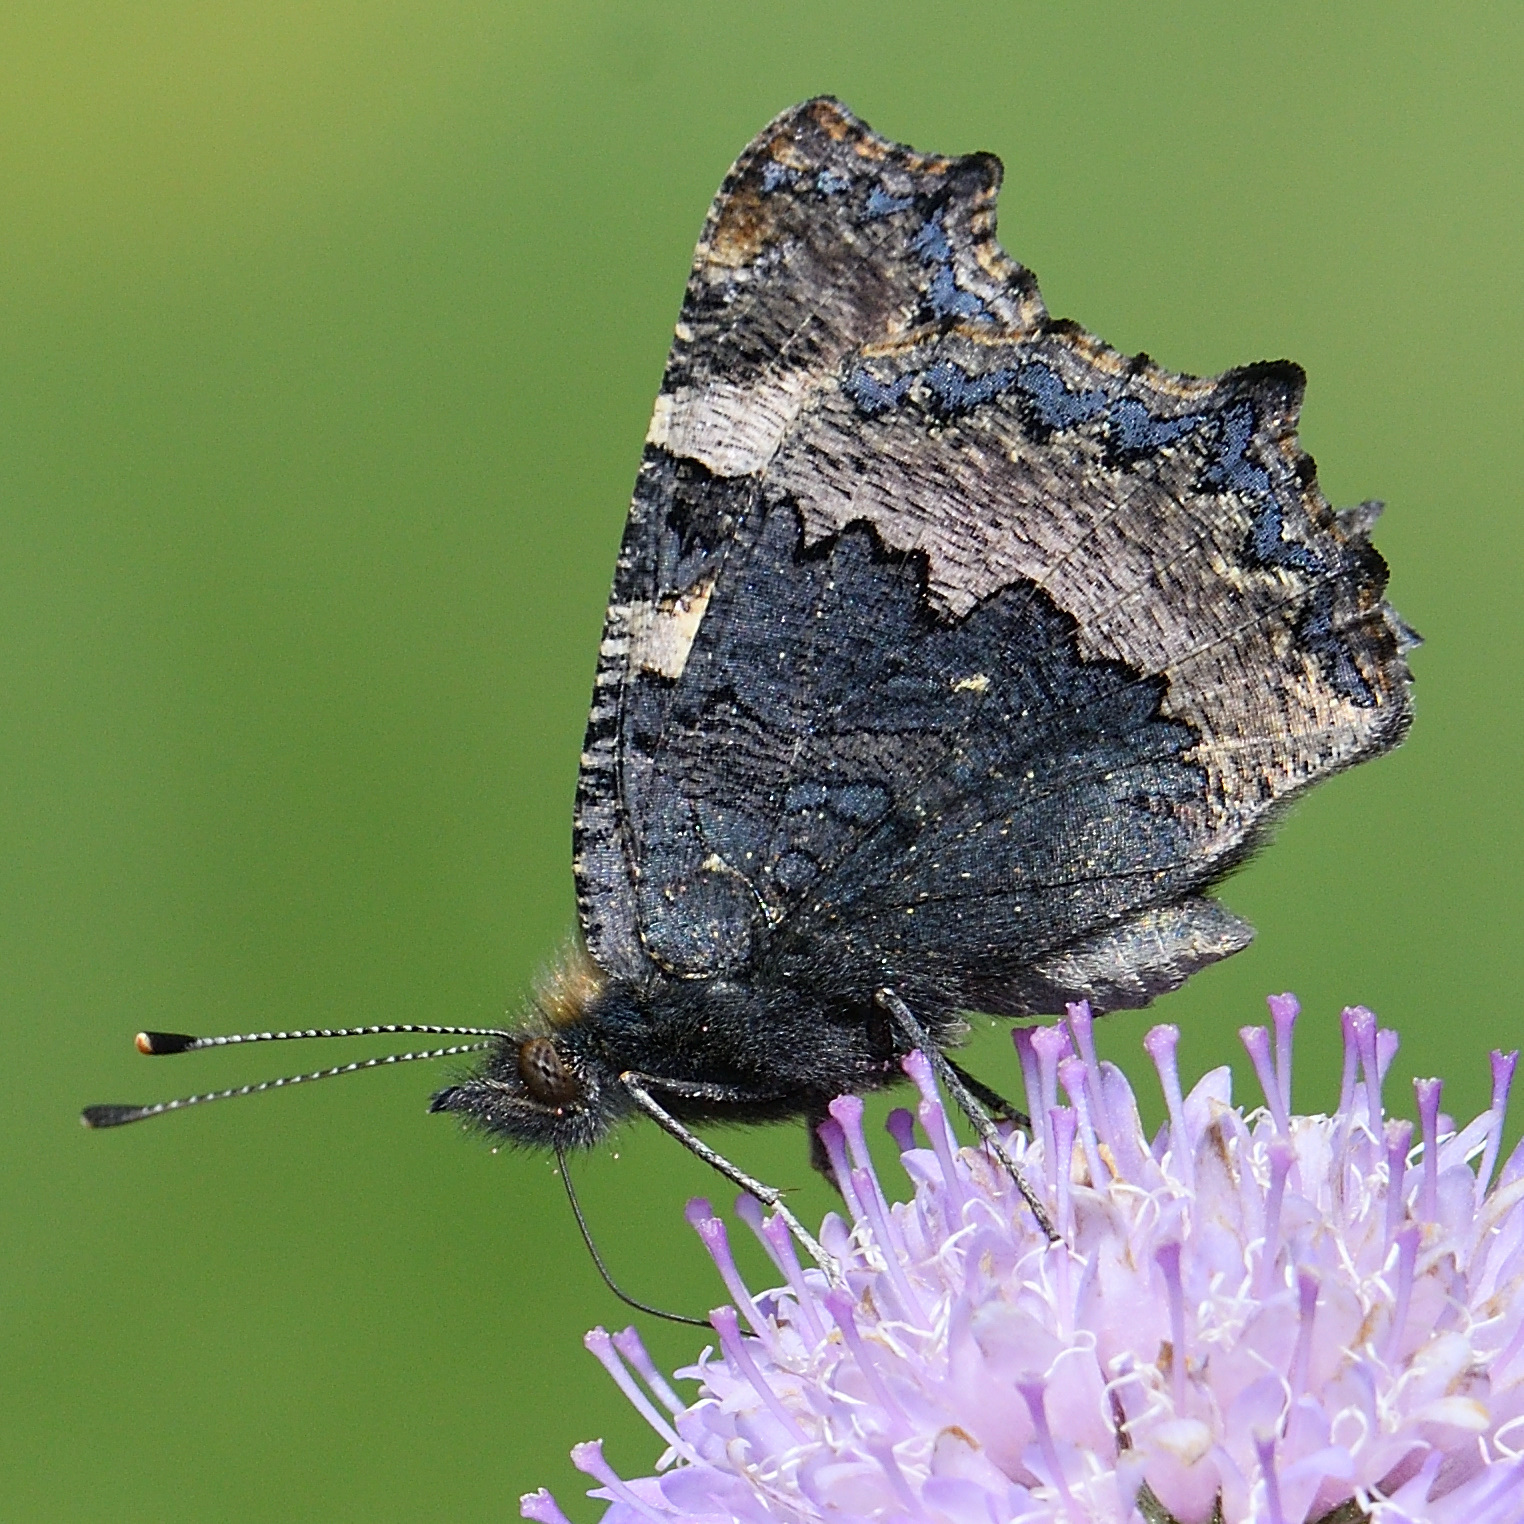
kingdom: Animalia
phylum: Arthropoda
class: Insecta
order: Lepidoptera
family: Nymphalidae
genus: Aglais
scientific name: Aglais urticae
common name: Small tortoiseshell
